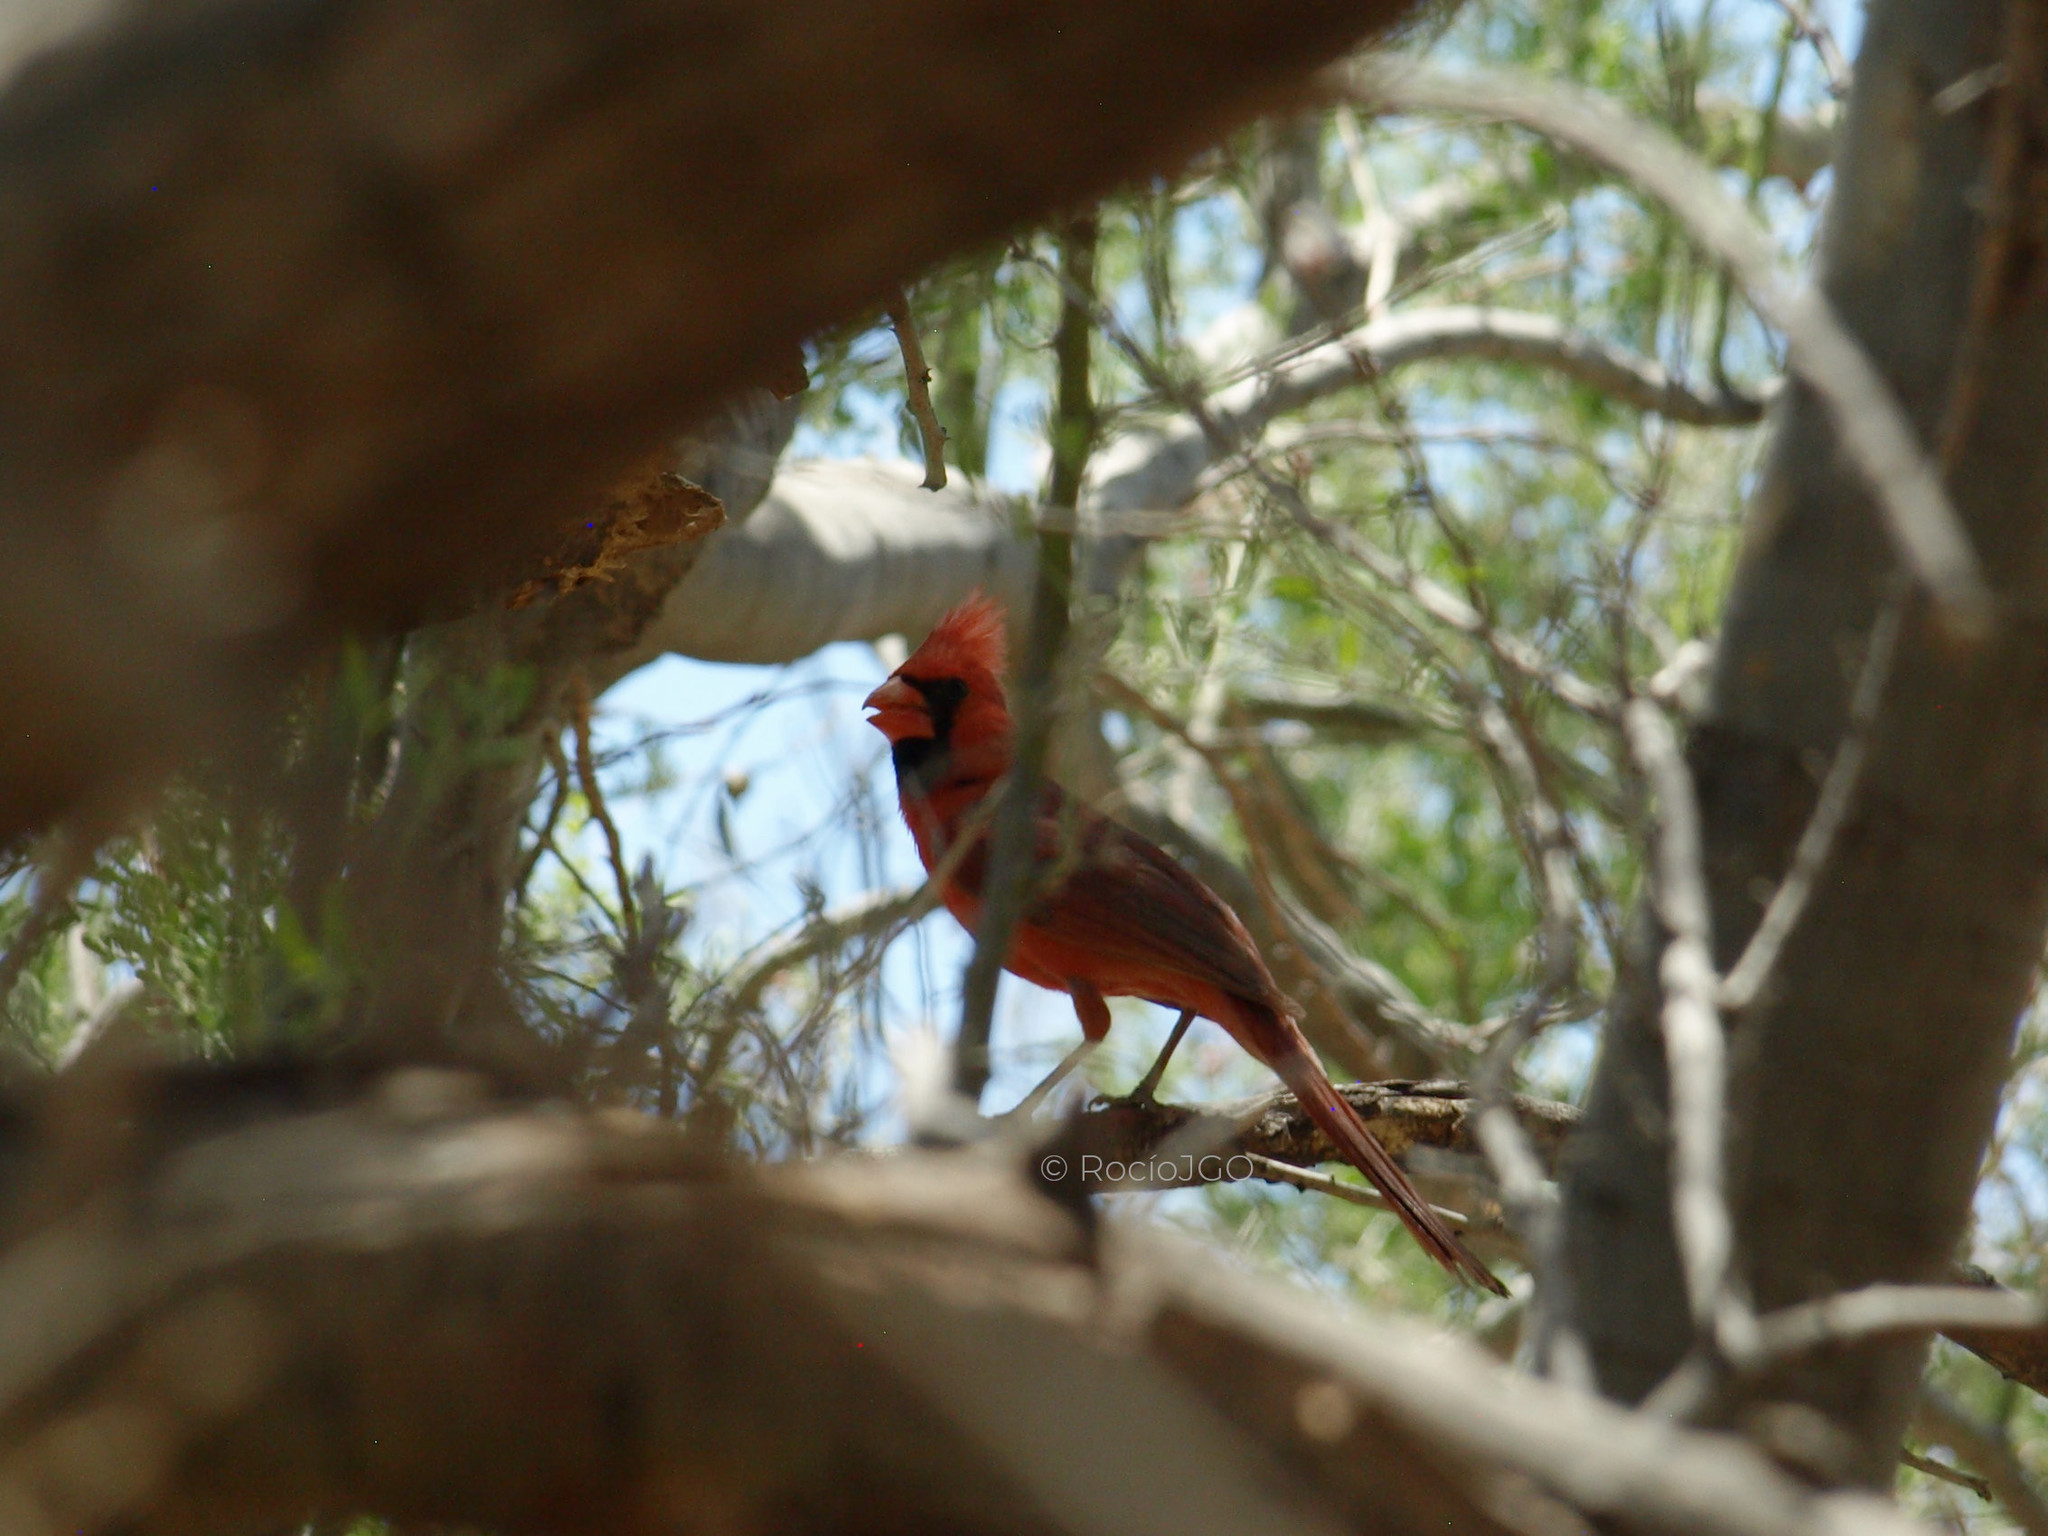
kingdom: Animalia
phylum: Chordata
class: Aves
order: Passeriformes
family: Cardinalidae
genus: Cardinalis
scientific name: Cardinalis cardinalis
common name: Northern cardinal
